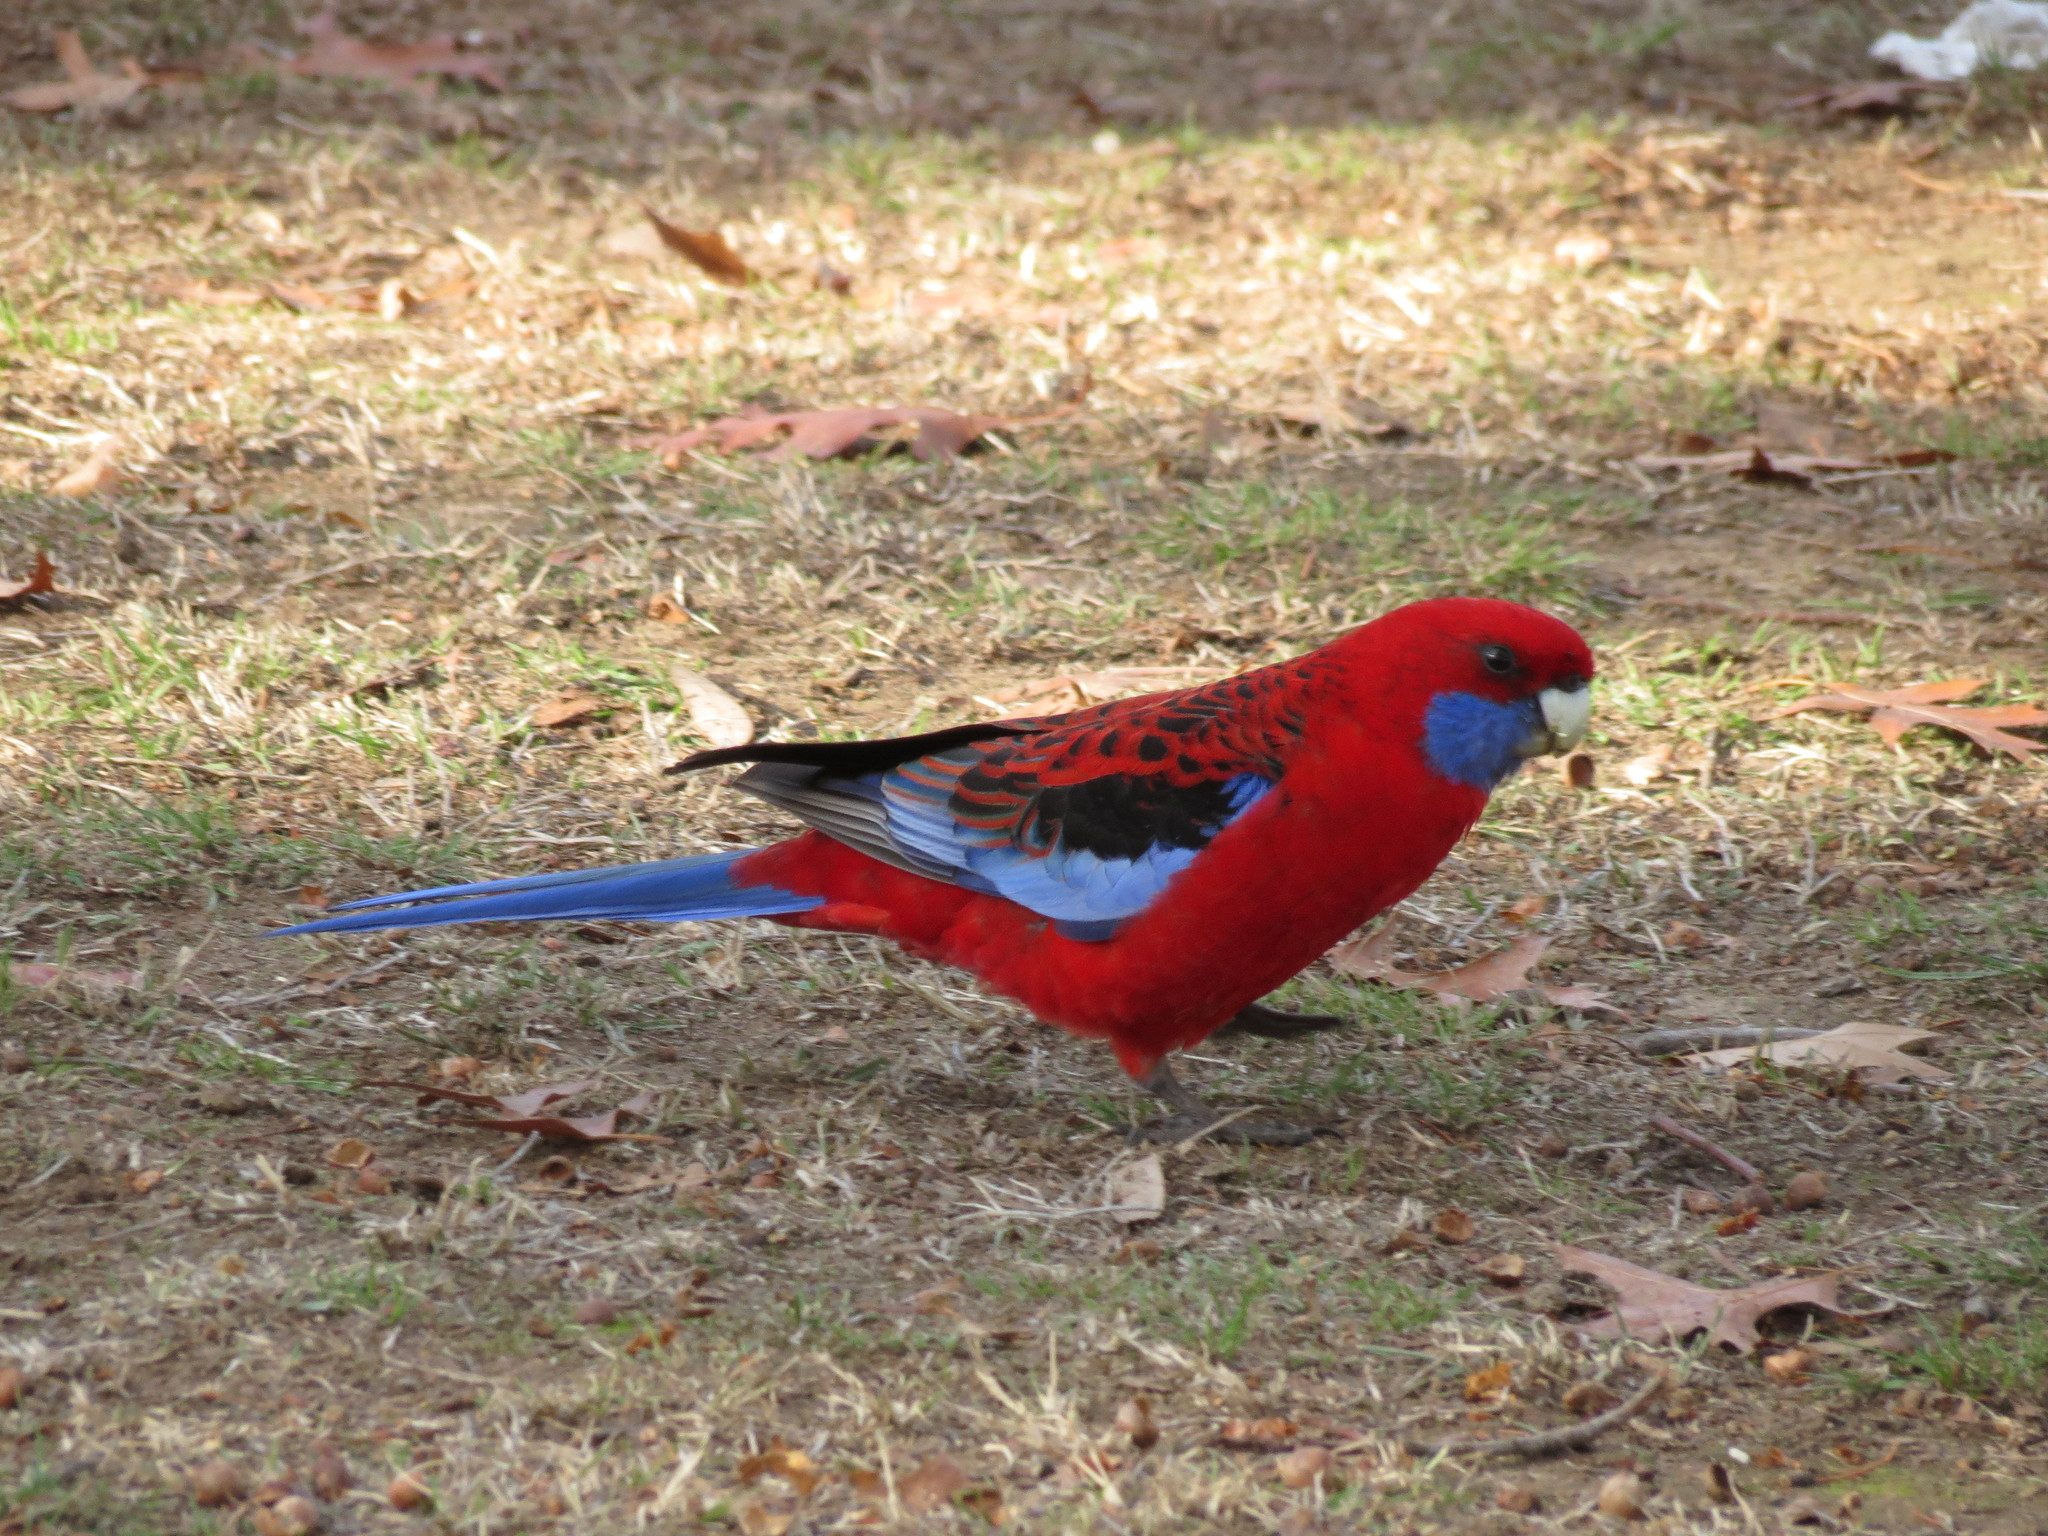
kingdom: Animalia
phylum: Chordata
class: Aves
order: Psittaciformes
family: Psittacidae
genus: Platycercus
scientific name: Platycercus elegans
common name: Crimson rosella
